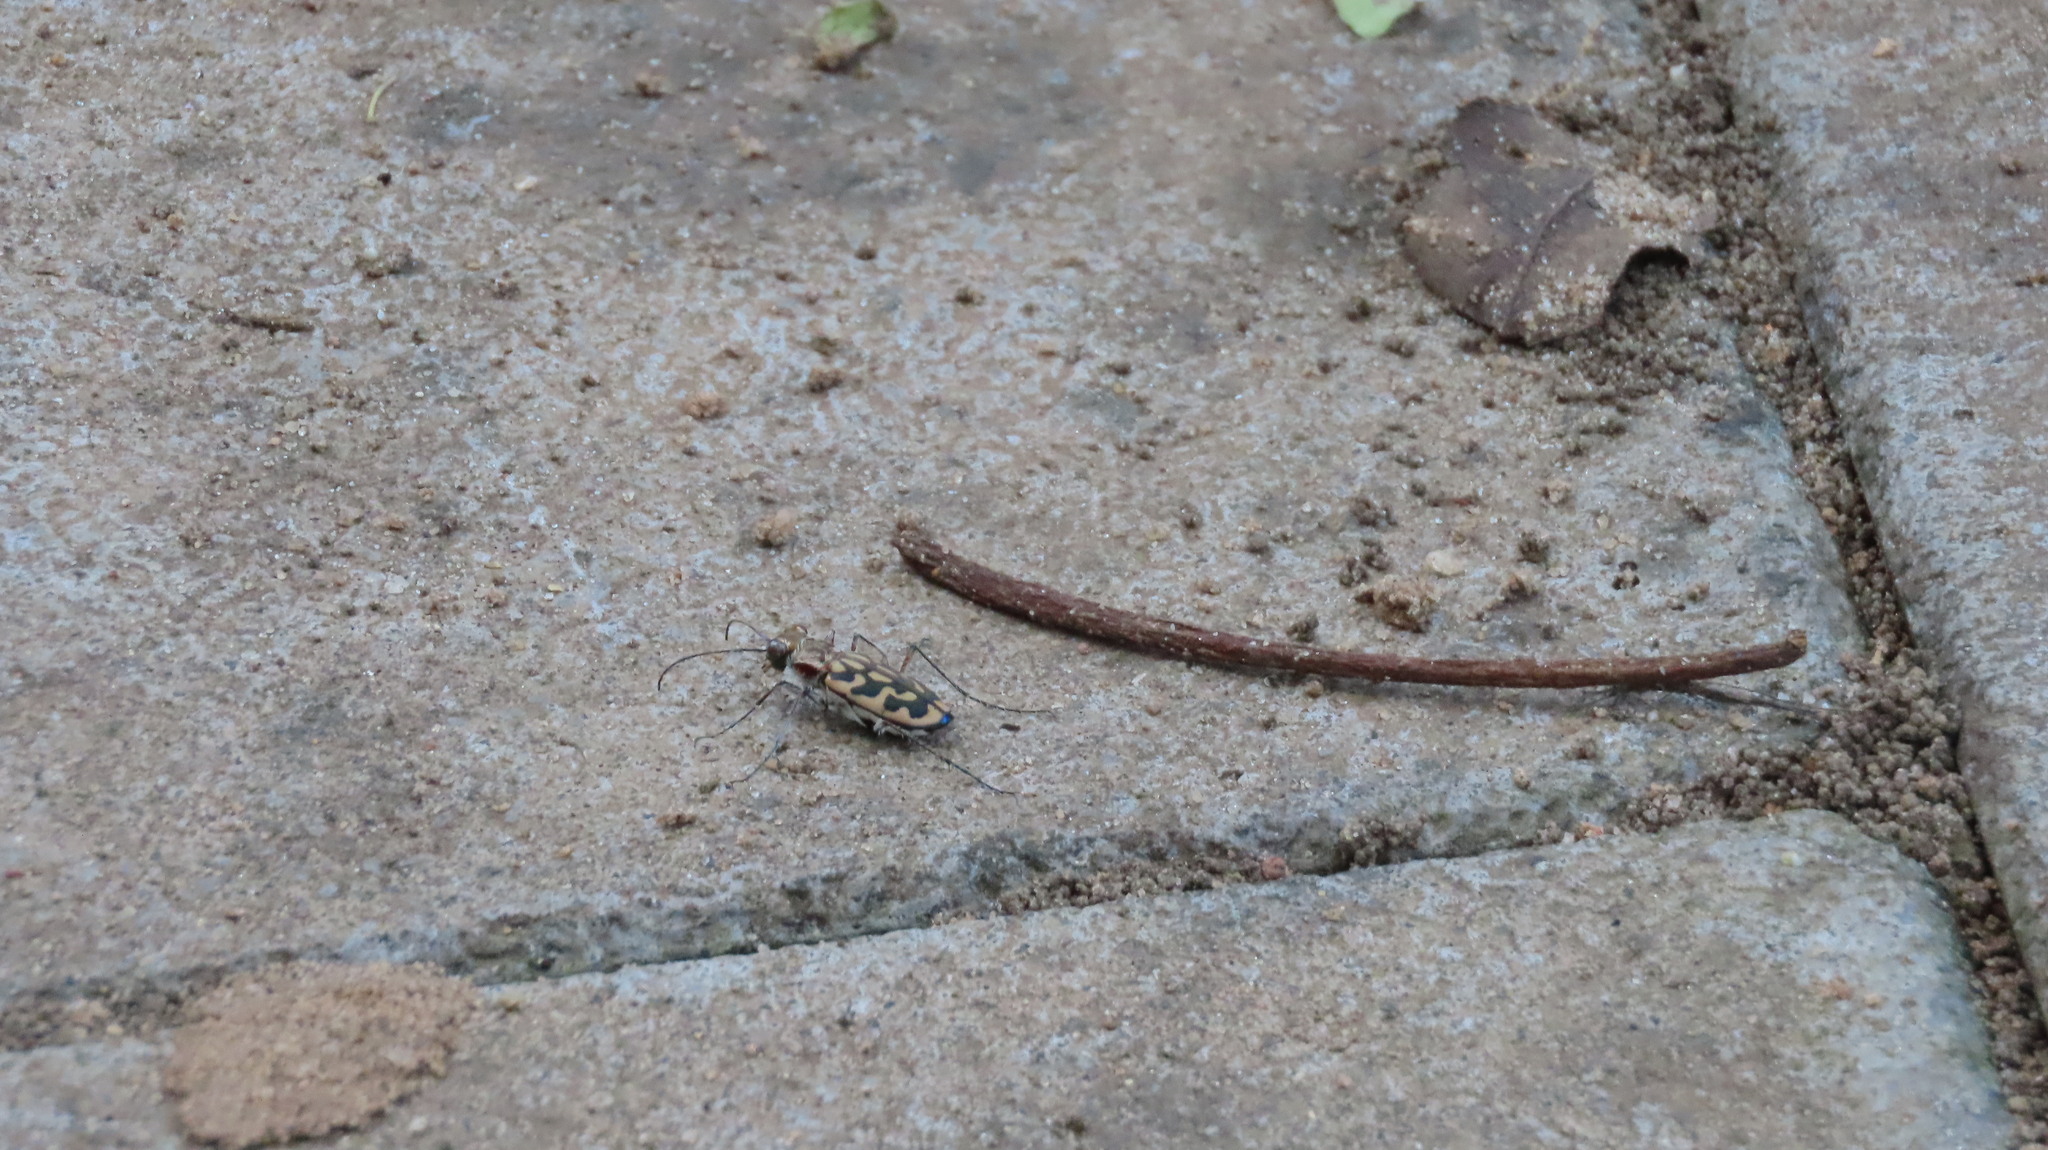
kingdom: Animalia
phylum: Arthropoda
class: Insecta
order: Coleoptera
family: Carabidae
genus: Lophyra
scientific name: Lophyra cancellata
